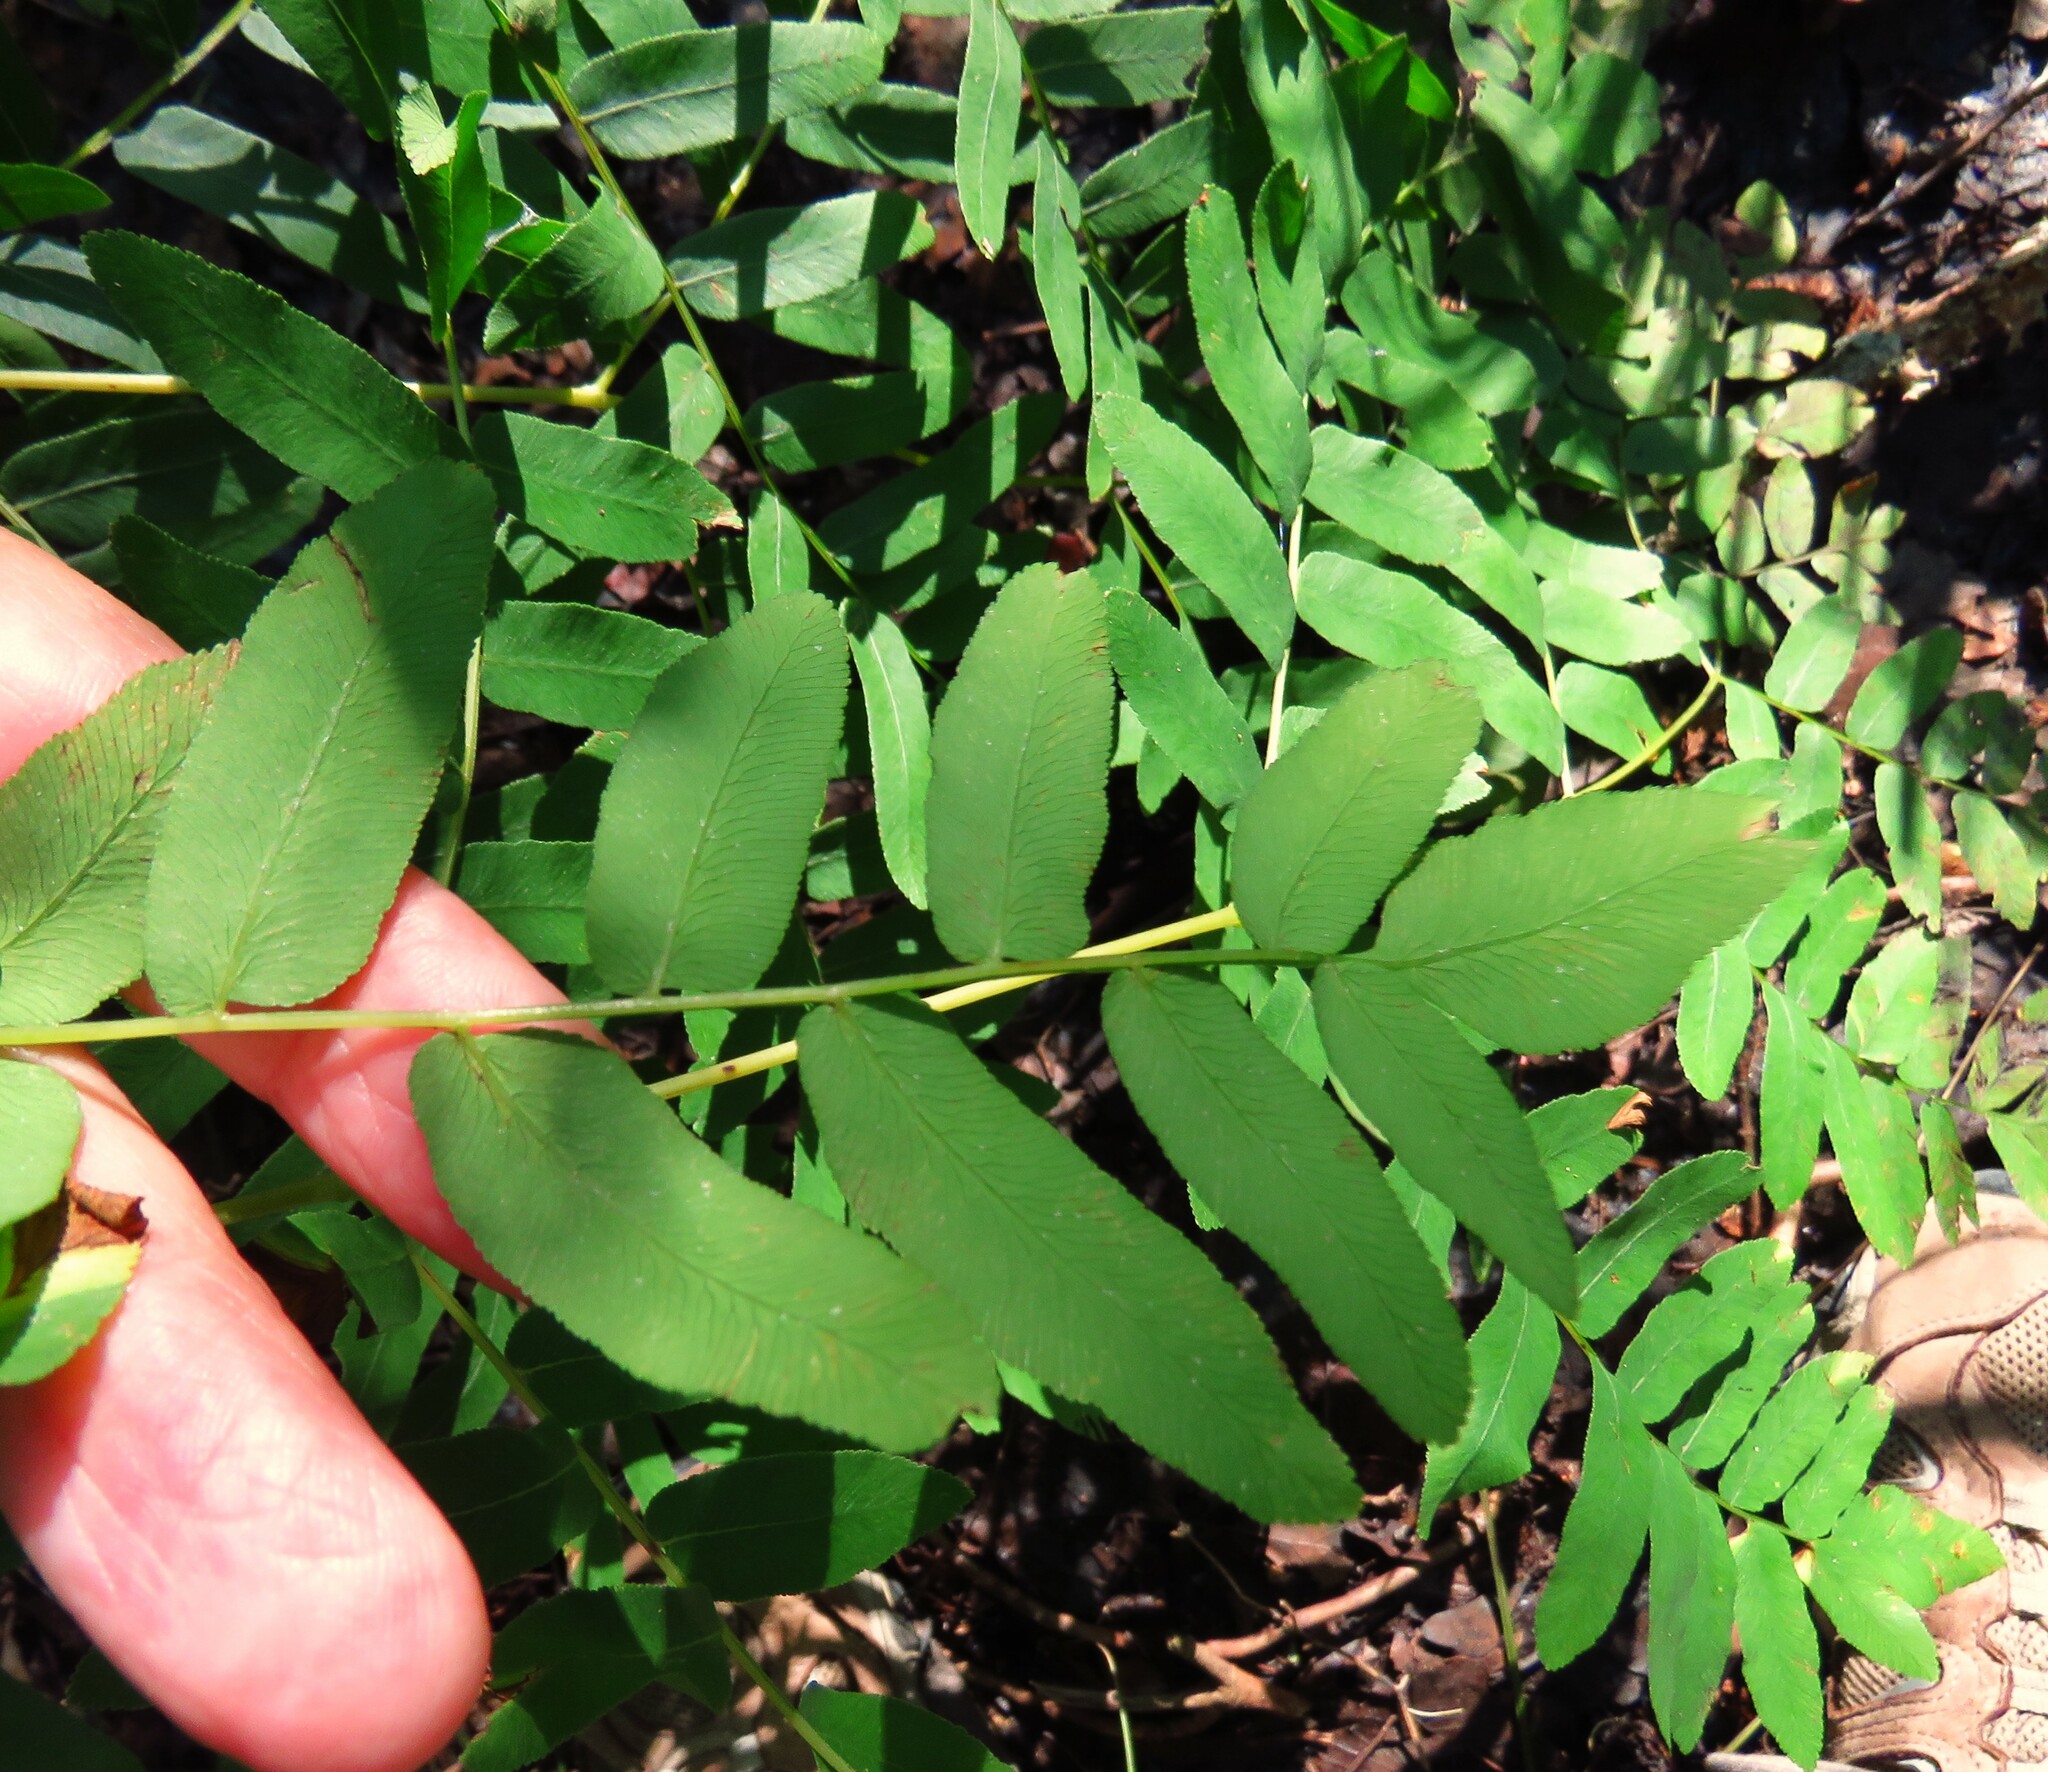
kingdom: Plantae
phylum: Tracheophyta
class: Polypodiopsida
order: Osmundales
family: Osmundaceae
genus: Osmunda
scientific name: Osmunda spectabilis
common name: American royal fern
